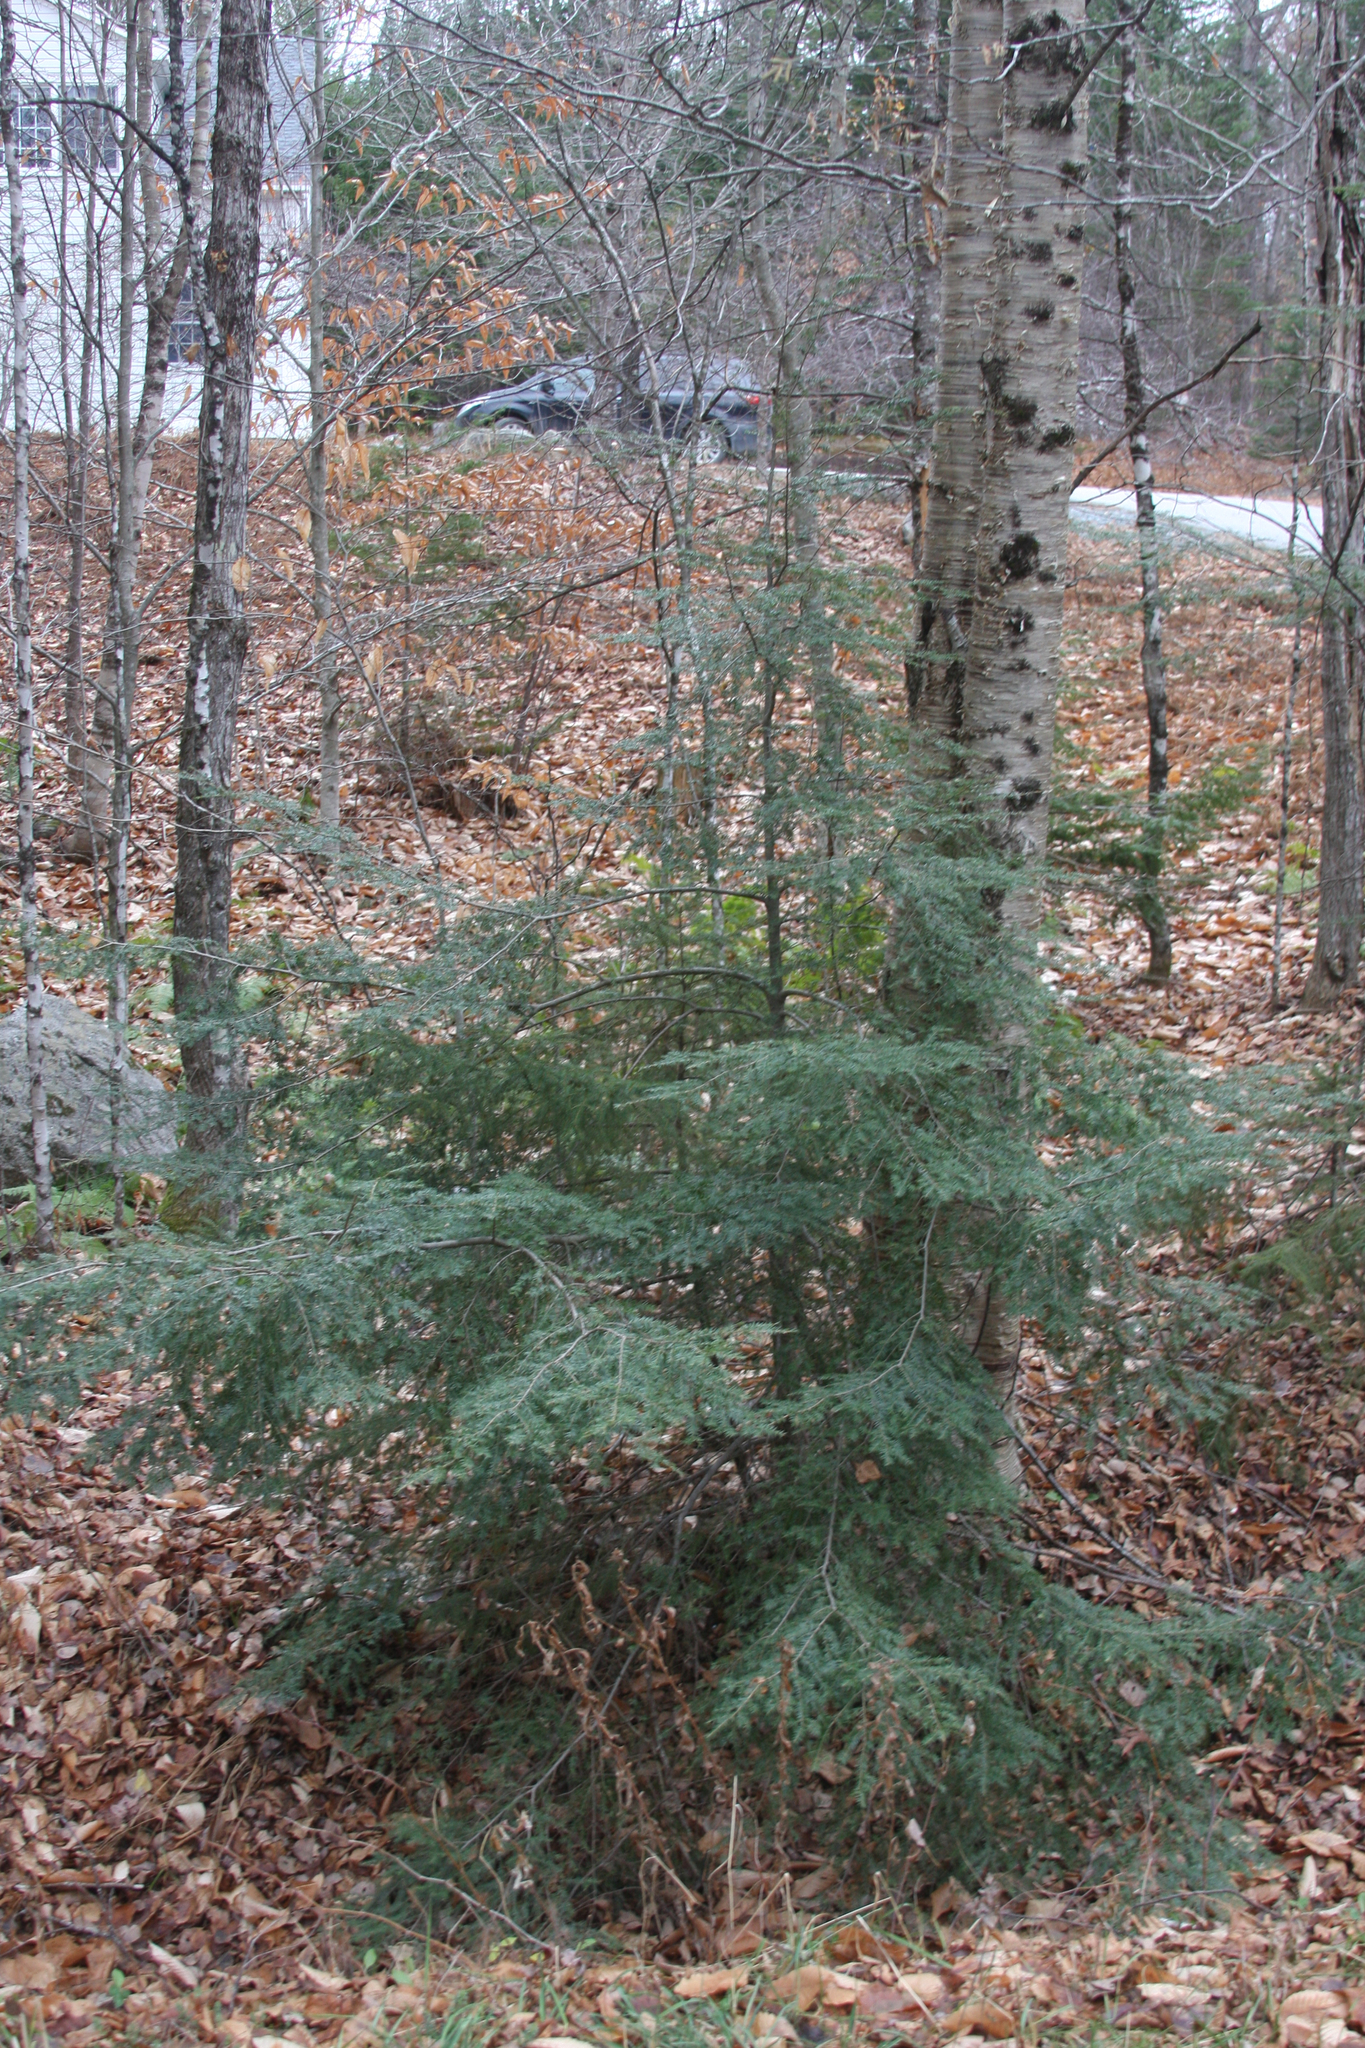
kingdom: Plantae
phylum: Tracheophyta
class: Pinopsida
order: Pinales
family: Pinaceae
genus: Tsuga
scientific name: Tsuga canadensis
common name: Eastern hemlock
